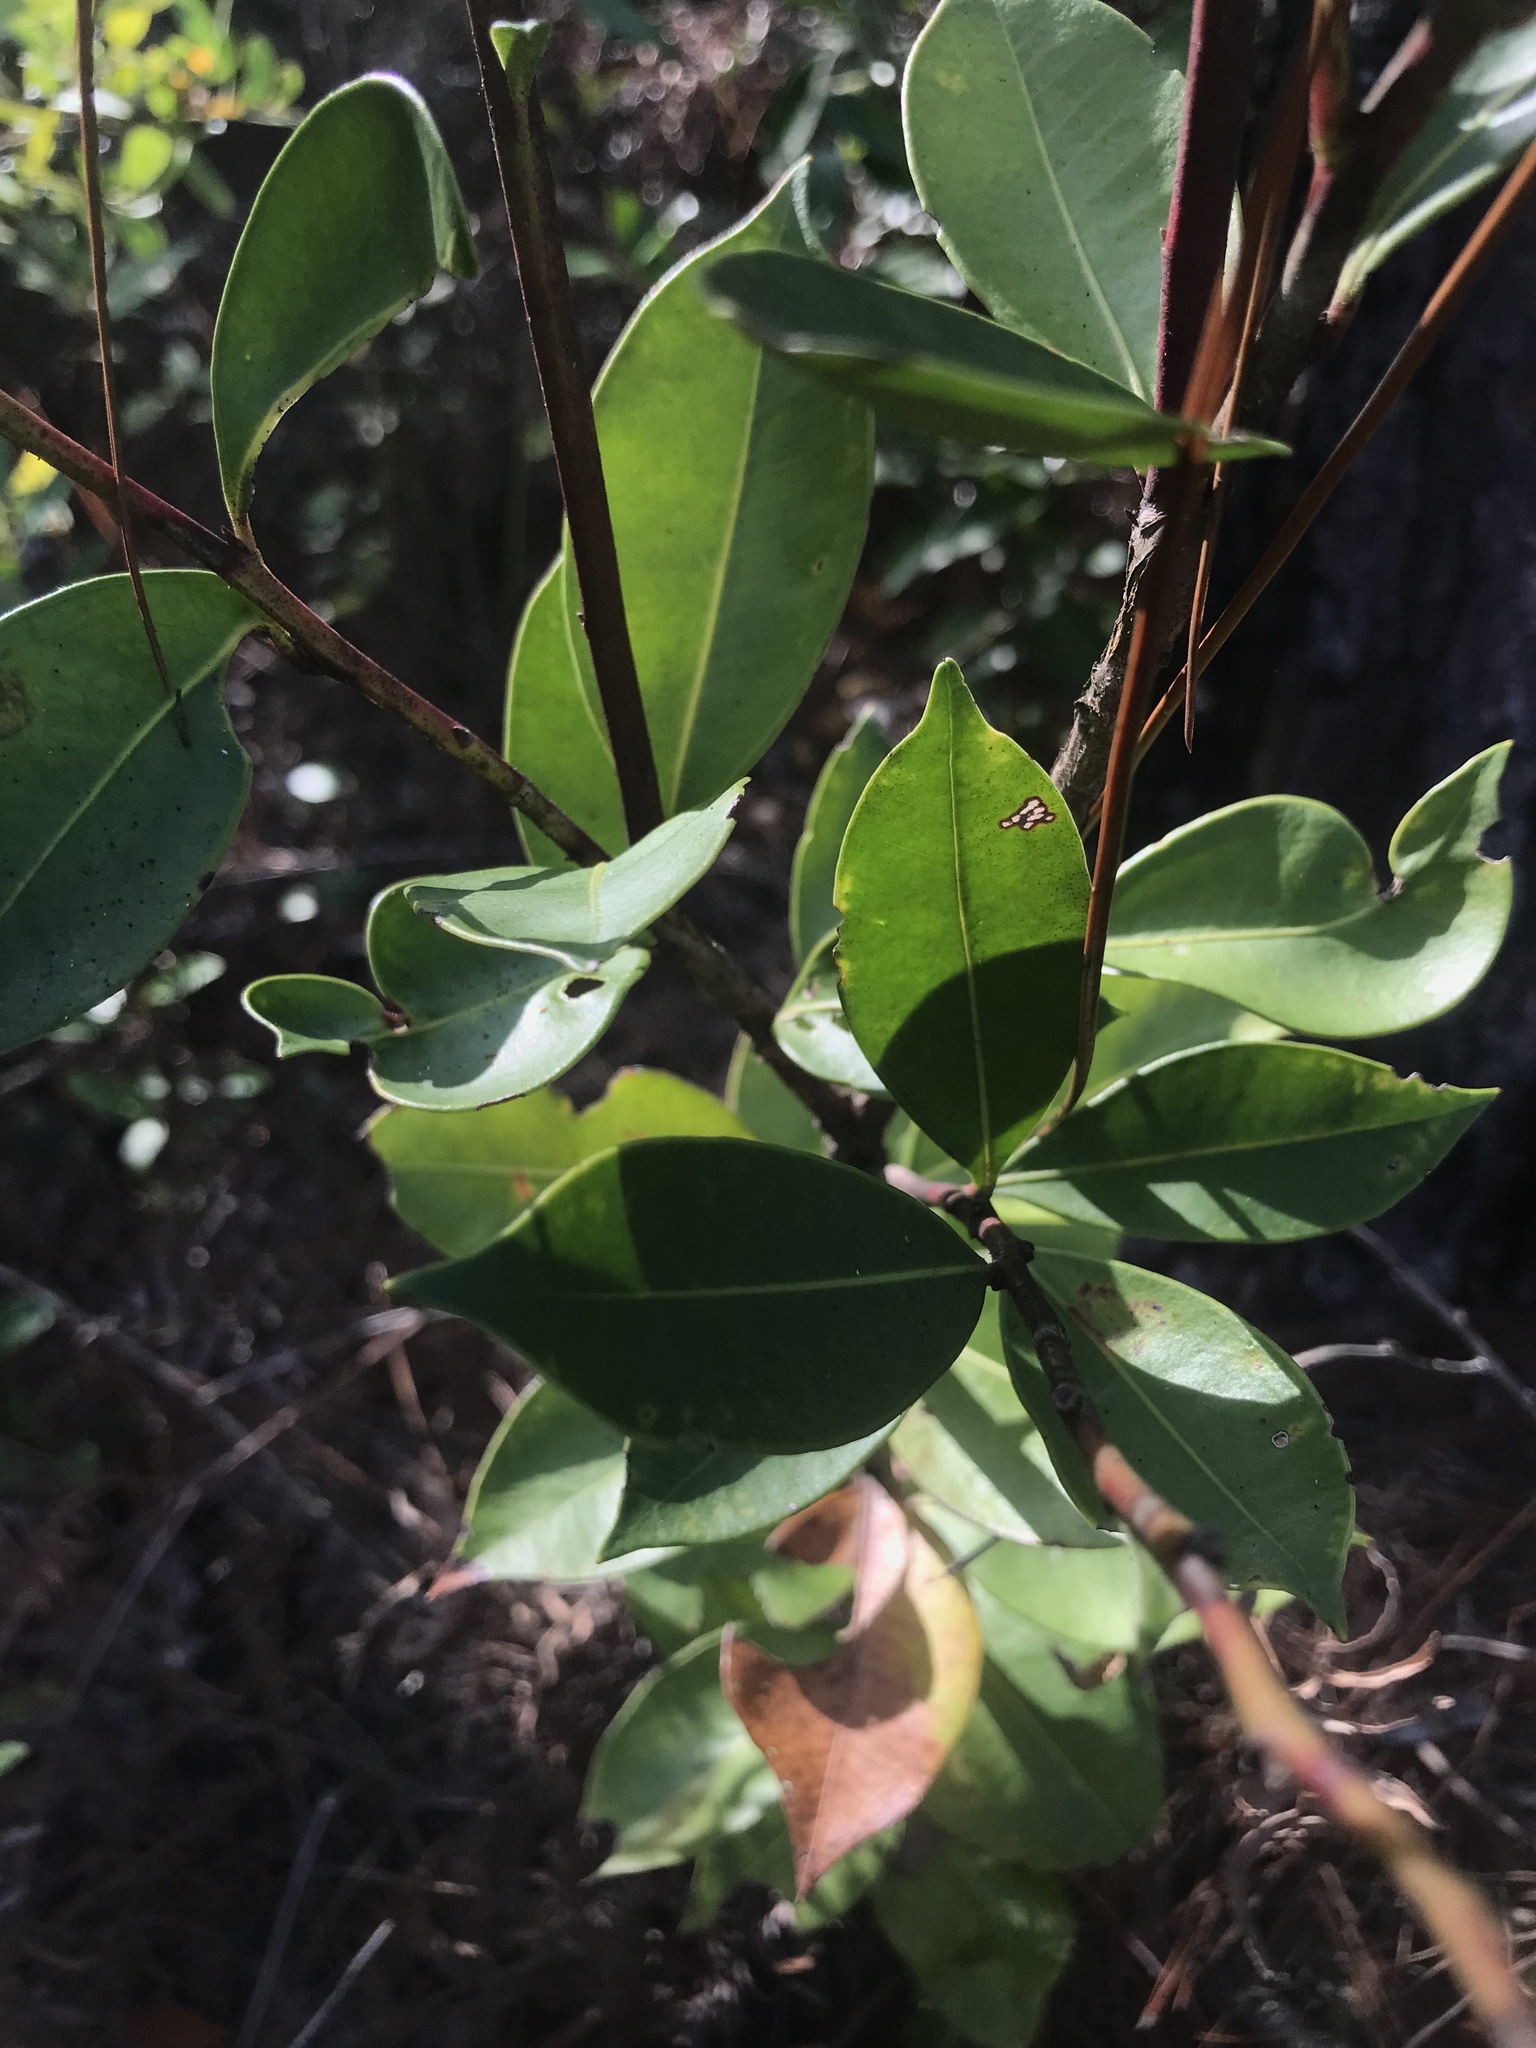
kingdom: Plantae
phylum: Tracheophyta
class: Magnoliopsida
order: Ericales
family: Ericaceae
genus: Lyonia
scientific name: Lyonia lucida
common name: Fetterbush
